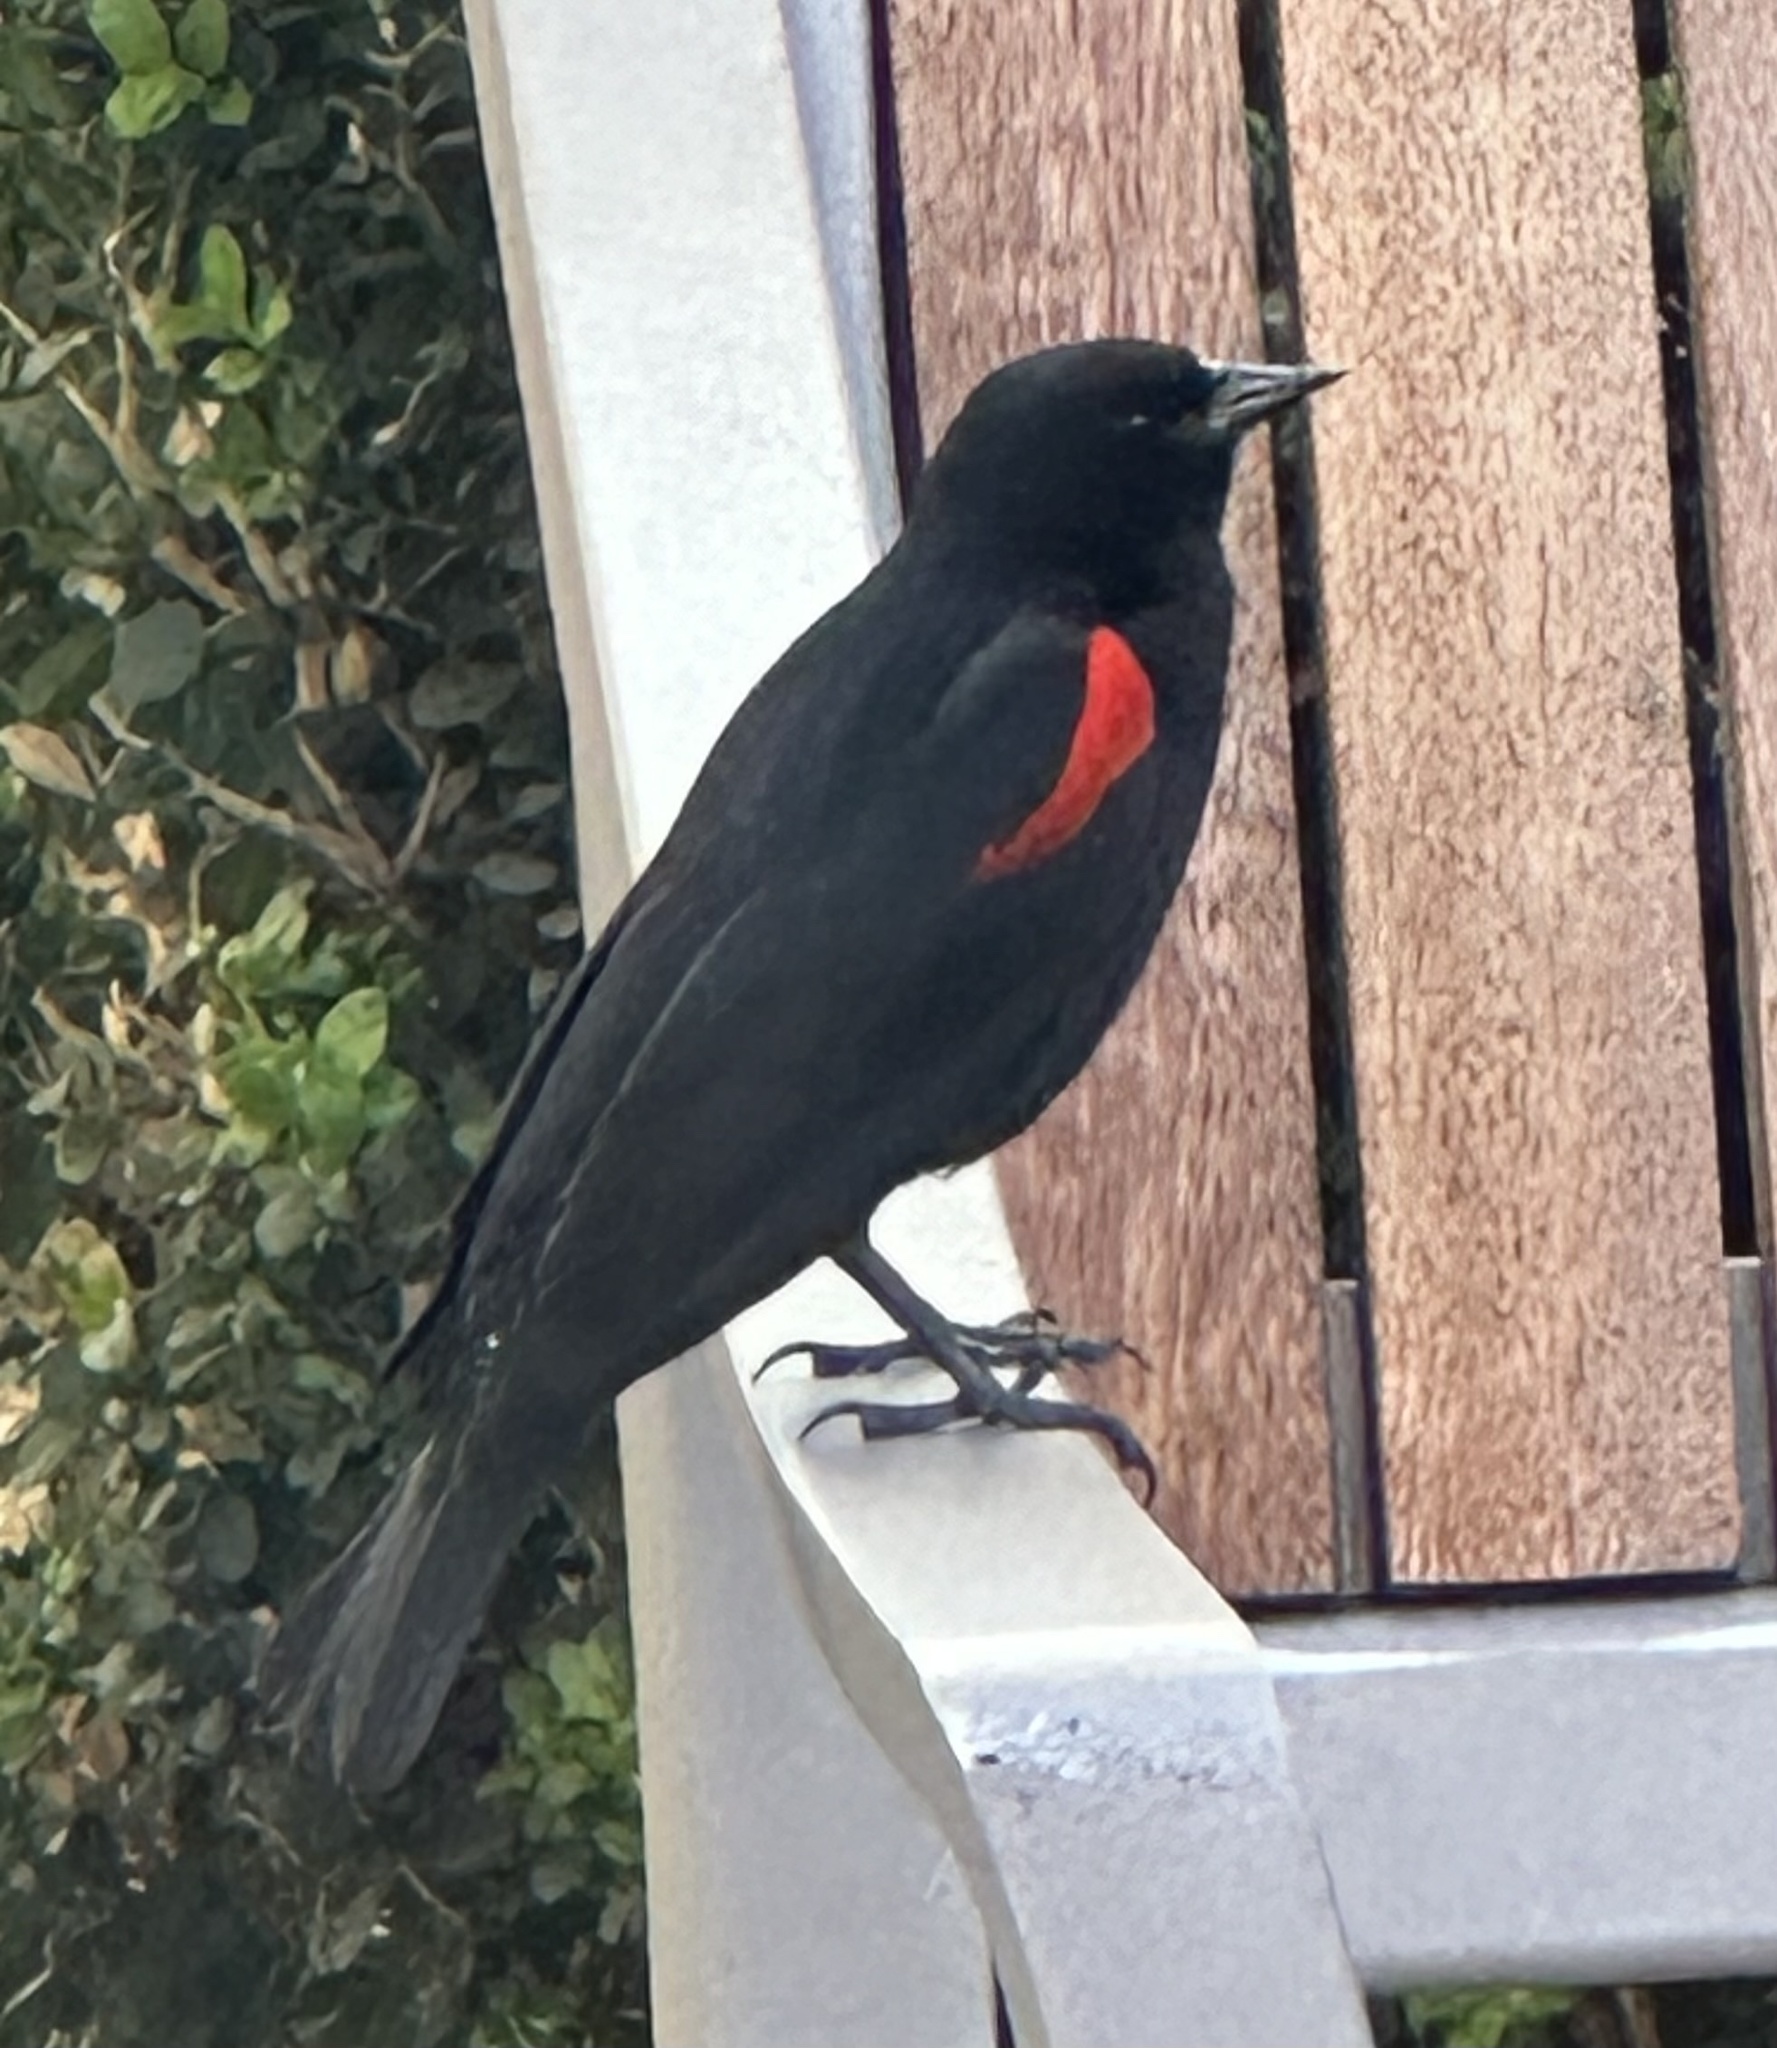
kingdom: Animalia
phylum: Chordata
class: Aves
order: Passeriformes
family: Icteridae
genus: Agelaius
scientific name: Agelaius phoeniceus
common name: Red-winged blackbird
